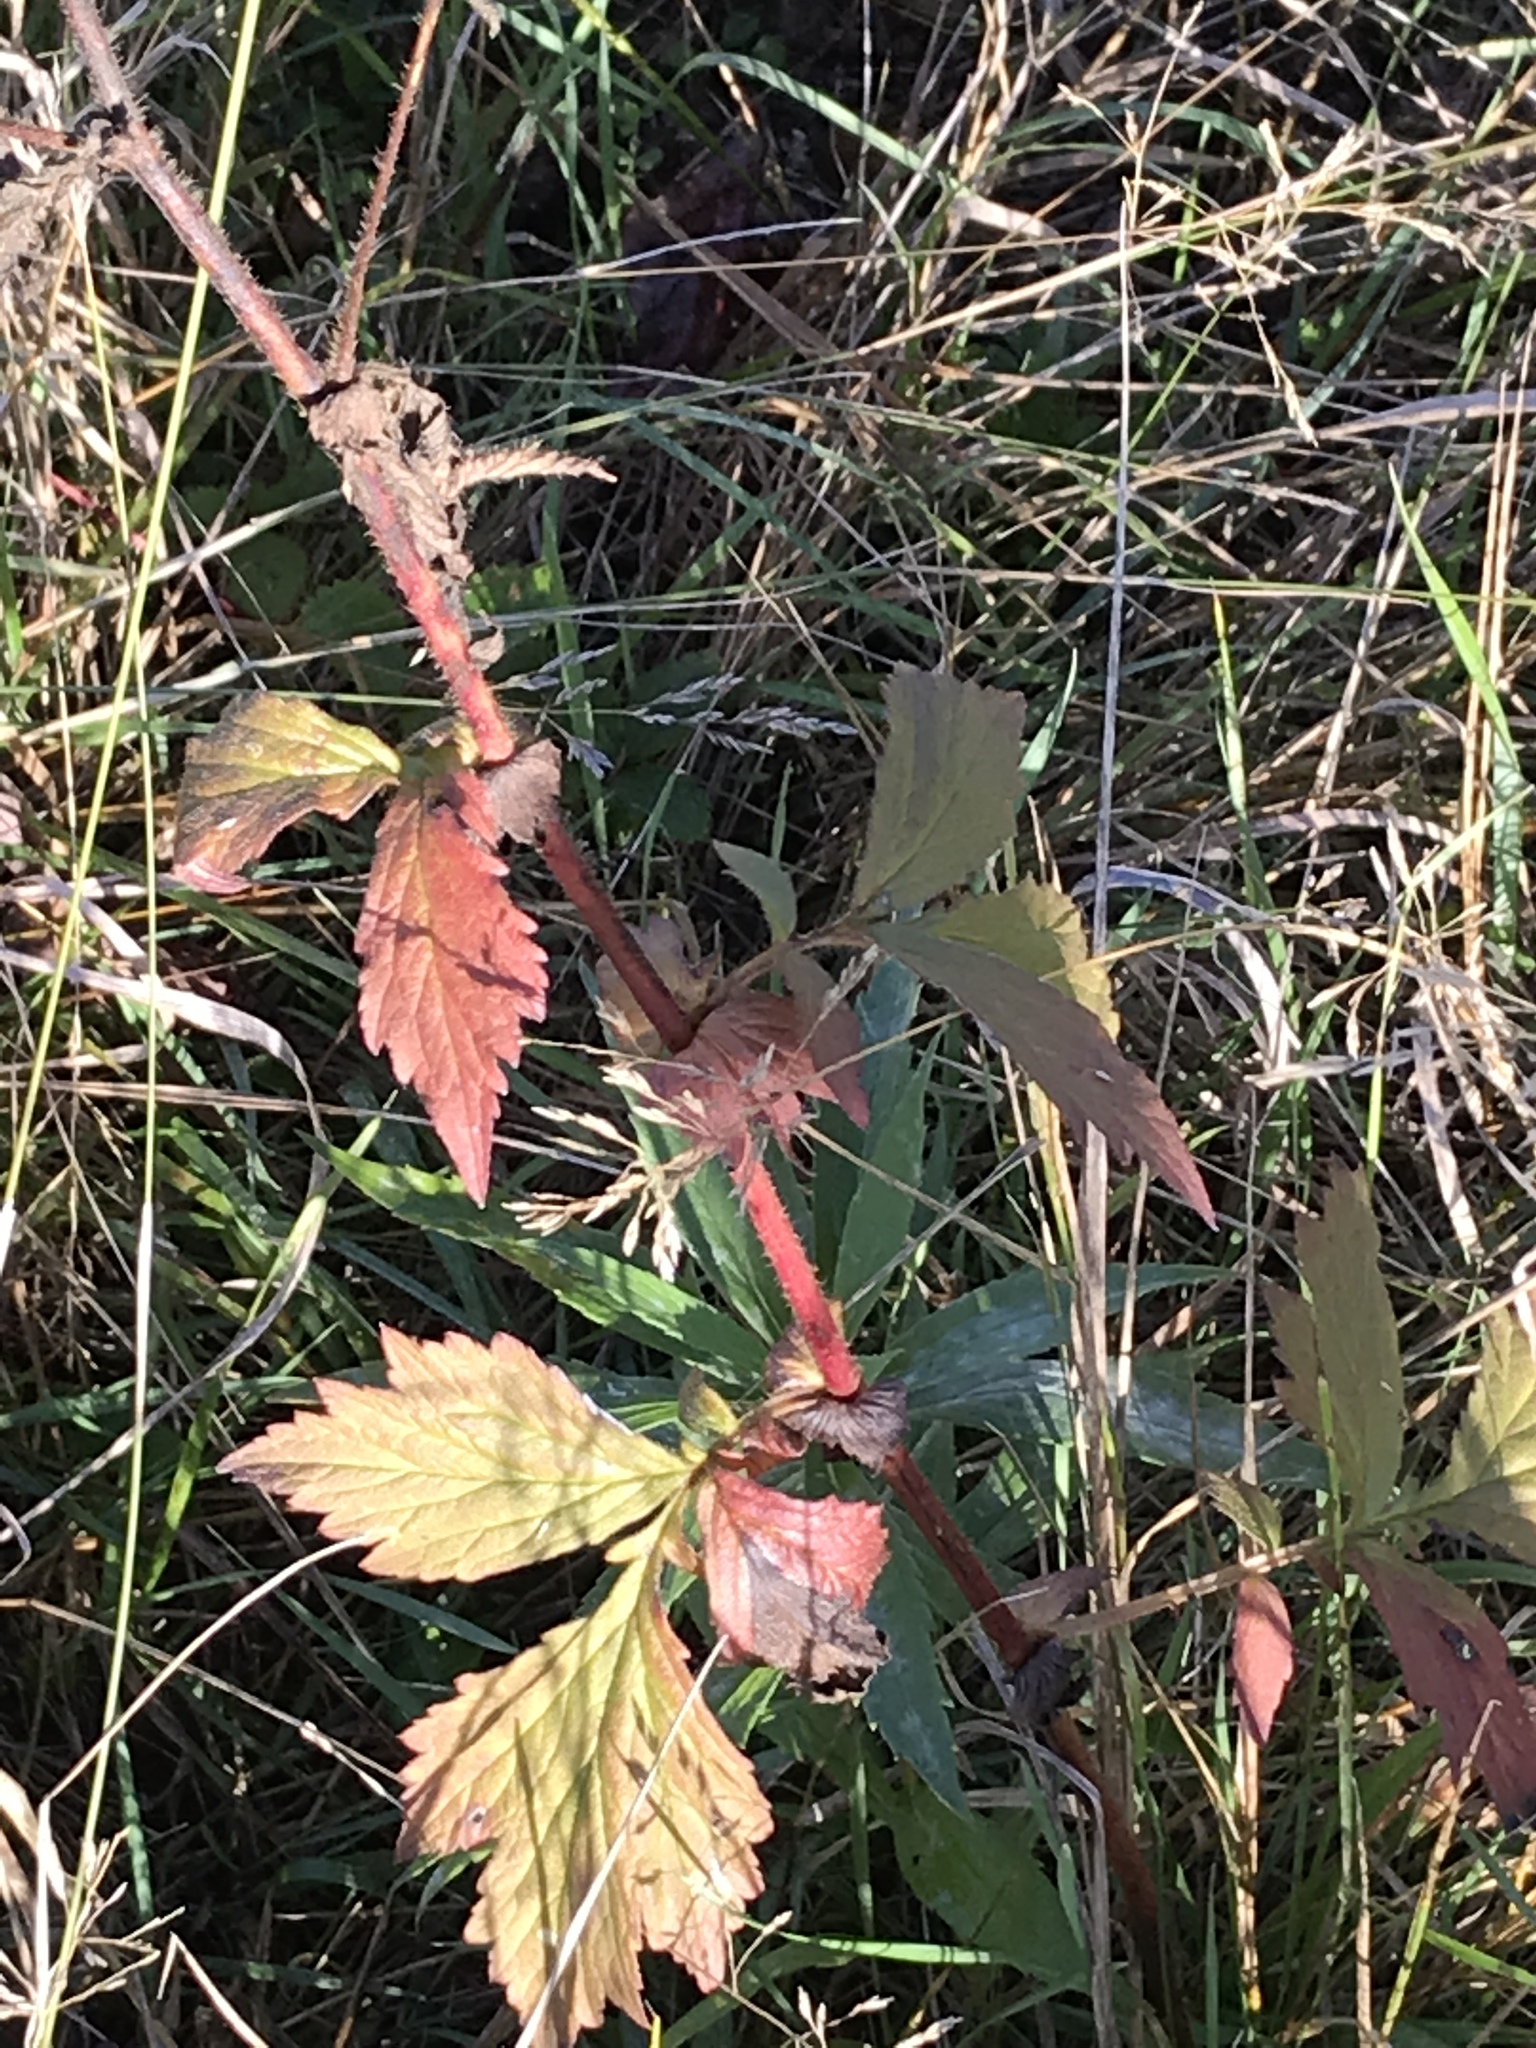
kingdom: Plantae
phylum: Tracheophyta
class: Magnoliopsida
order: Rosales
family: Rosaceae
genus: Geum
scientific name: Geum aleppicum
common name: Yellow avens
